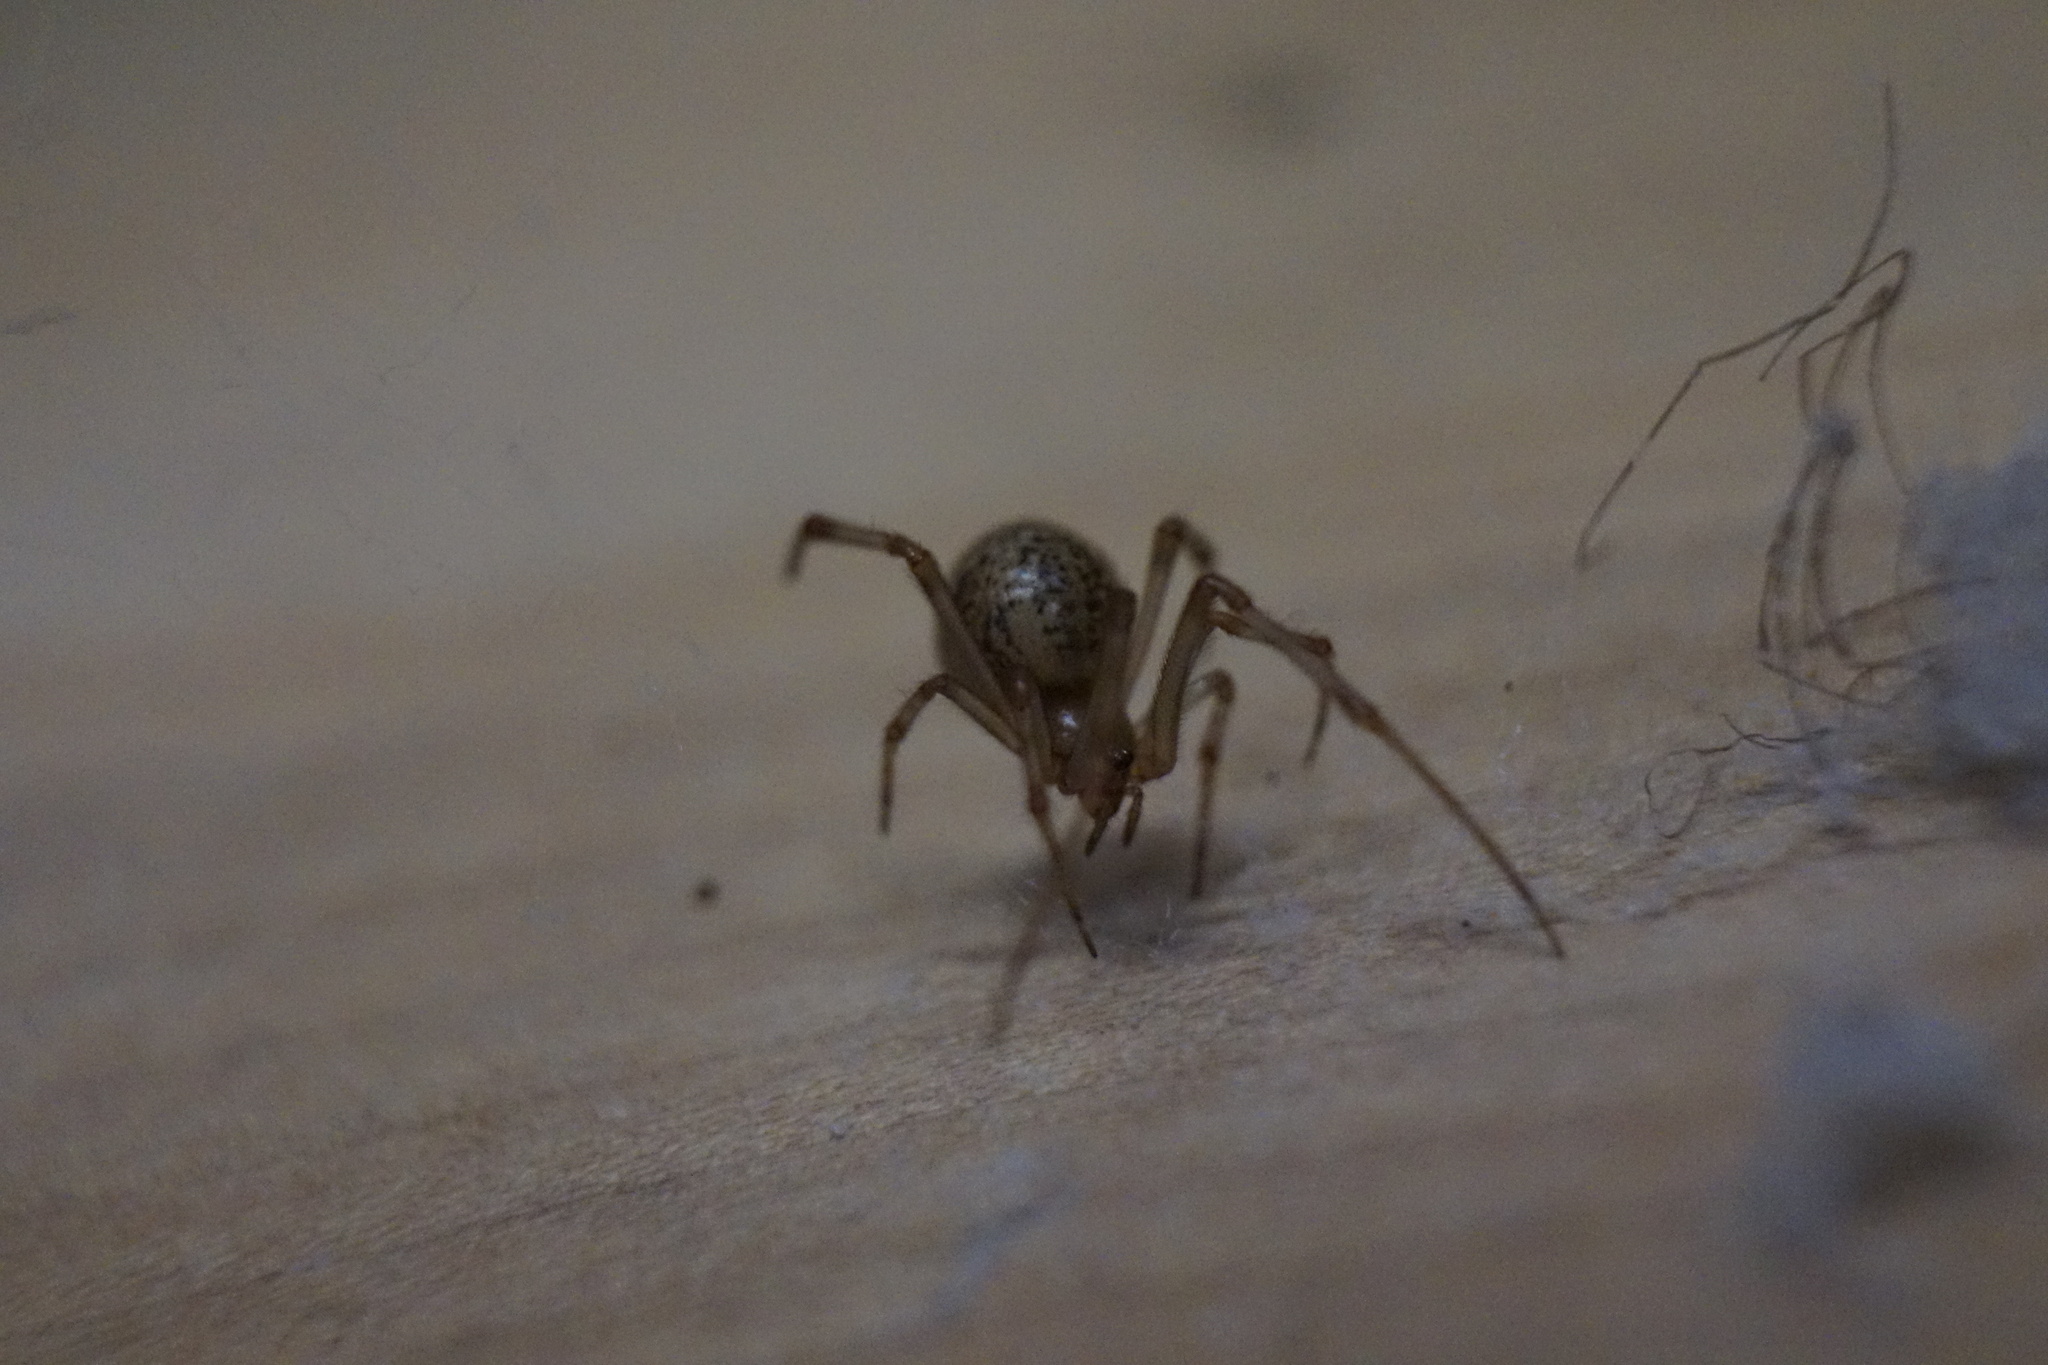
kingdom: Animalia
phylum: Arthropoda
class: Arachnida
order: Araneae
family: Theridiidae
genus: Parasteatoda
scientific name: Parasteatoda
